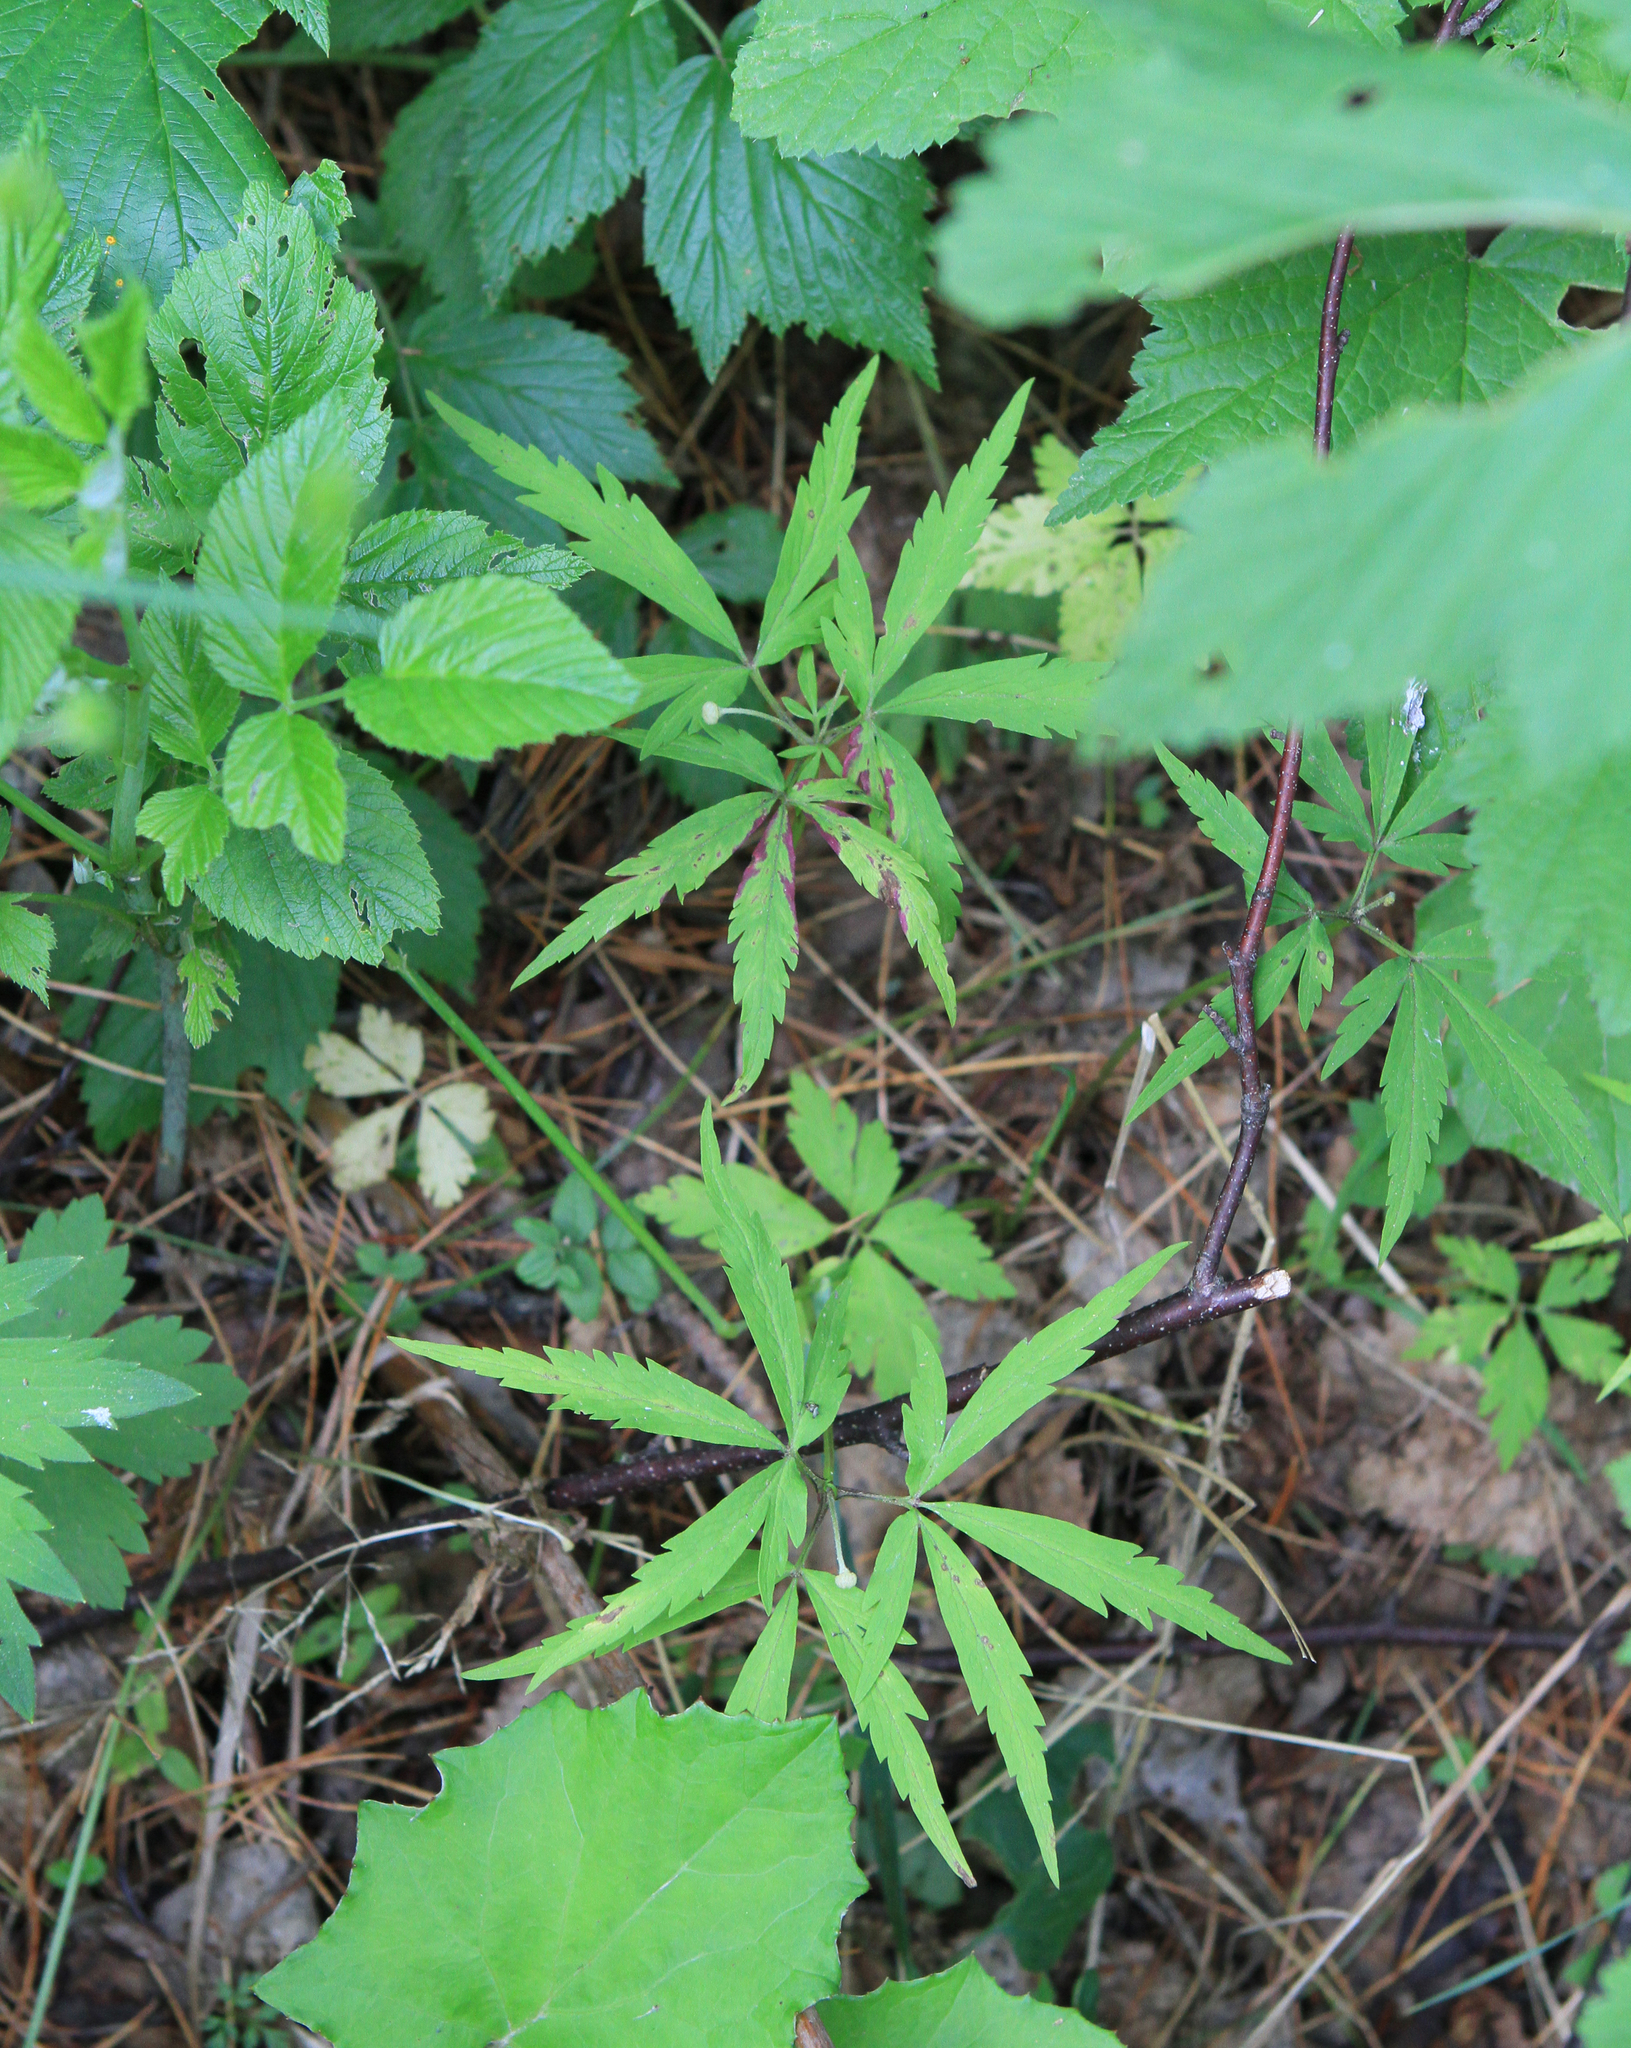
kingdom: Plantae
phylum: Tracheophyta
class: Magnoliopsida
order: Ranunculales
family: Ranunculaceae
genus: Anemone
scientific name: Anemone reflexa
